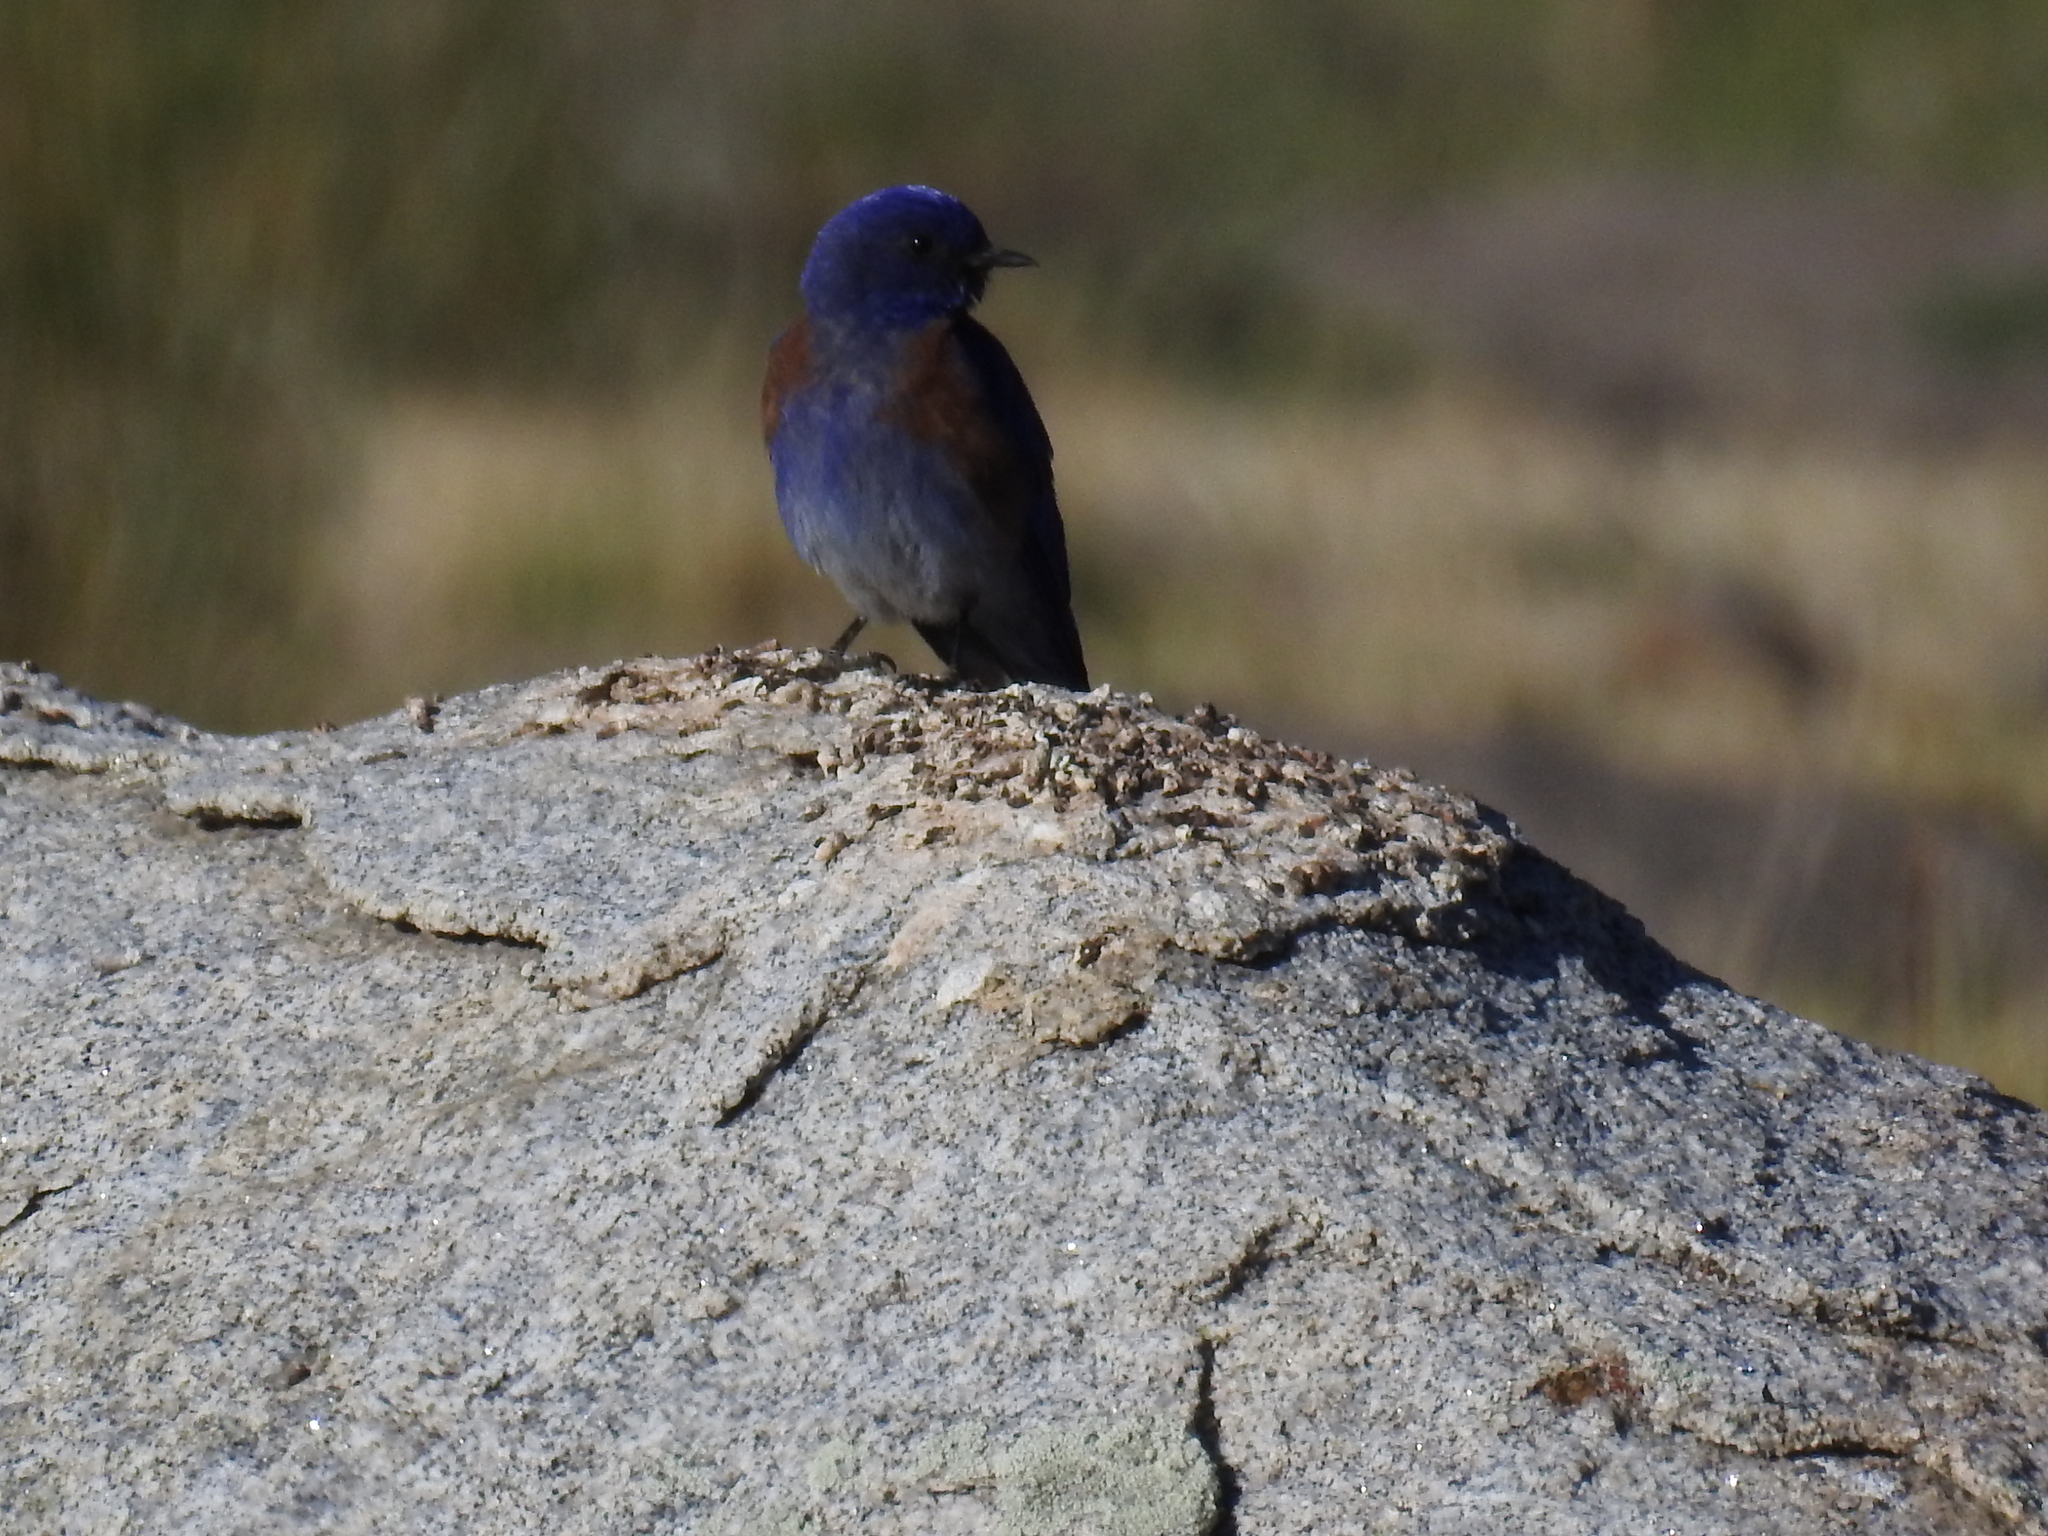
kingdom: Animalia
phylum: Chordata
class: Aves
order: Passeriformes
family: Turdidae
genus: Sialia
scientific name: Sialia mexicana
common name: Western bluebird
